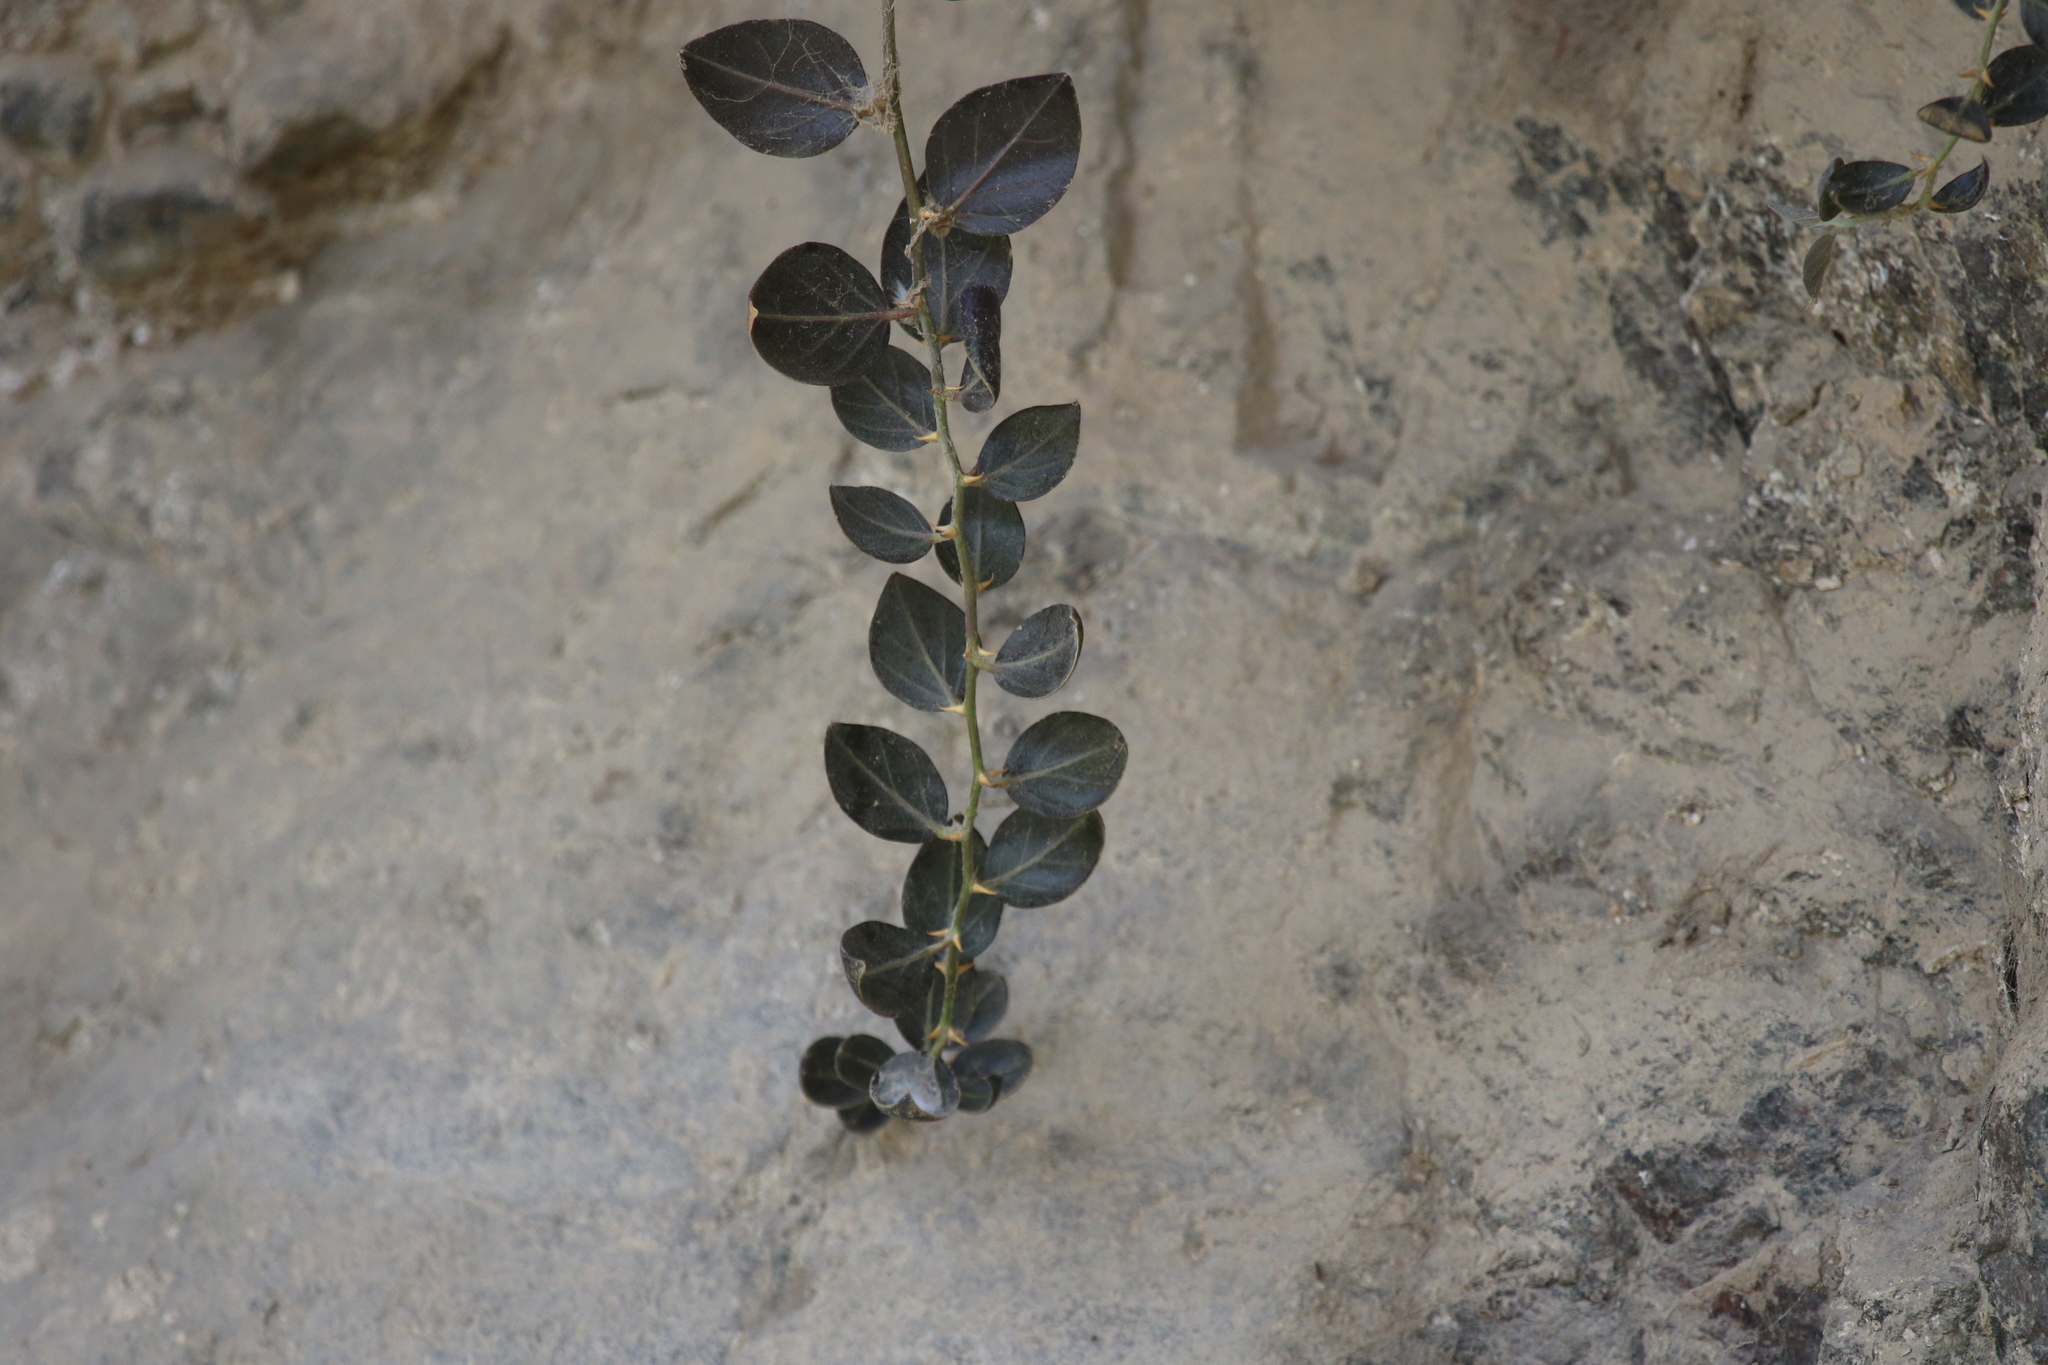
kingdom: Plantae
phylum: Tracheophyta
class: Magnoliopsida
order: Ranunculales
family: Menispermaceae
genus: Cocculus
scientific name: Cocculus pendulus
